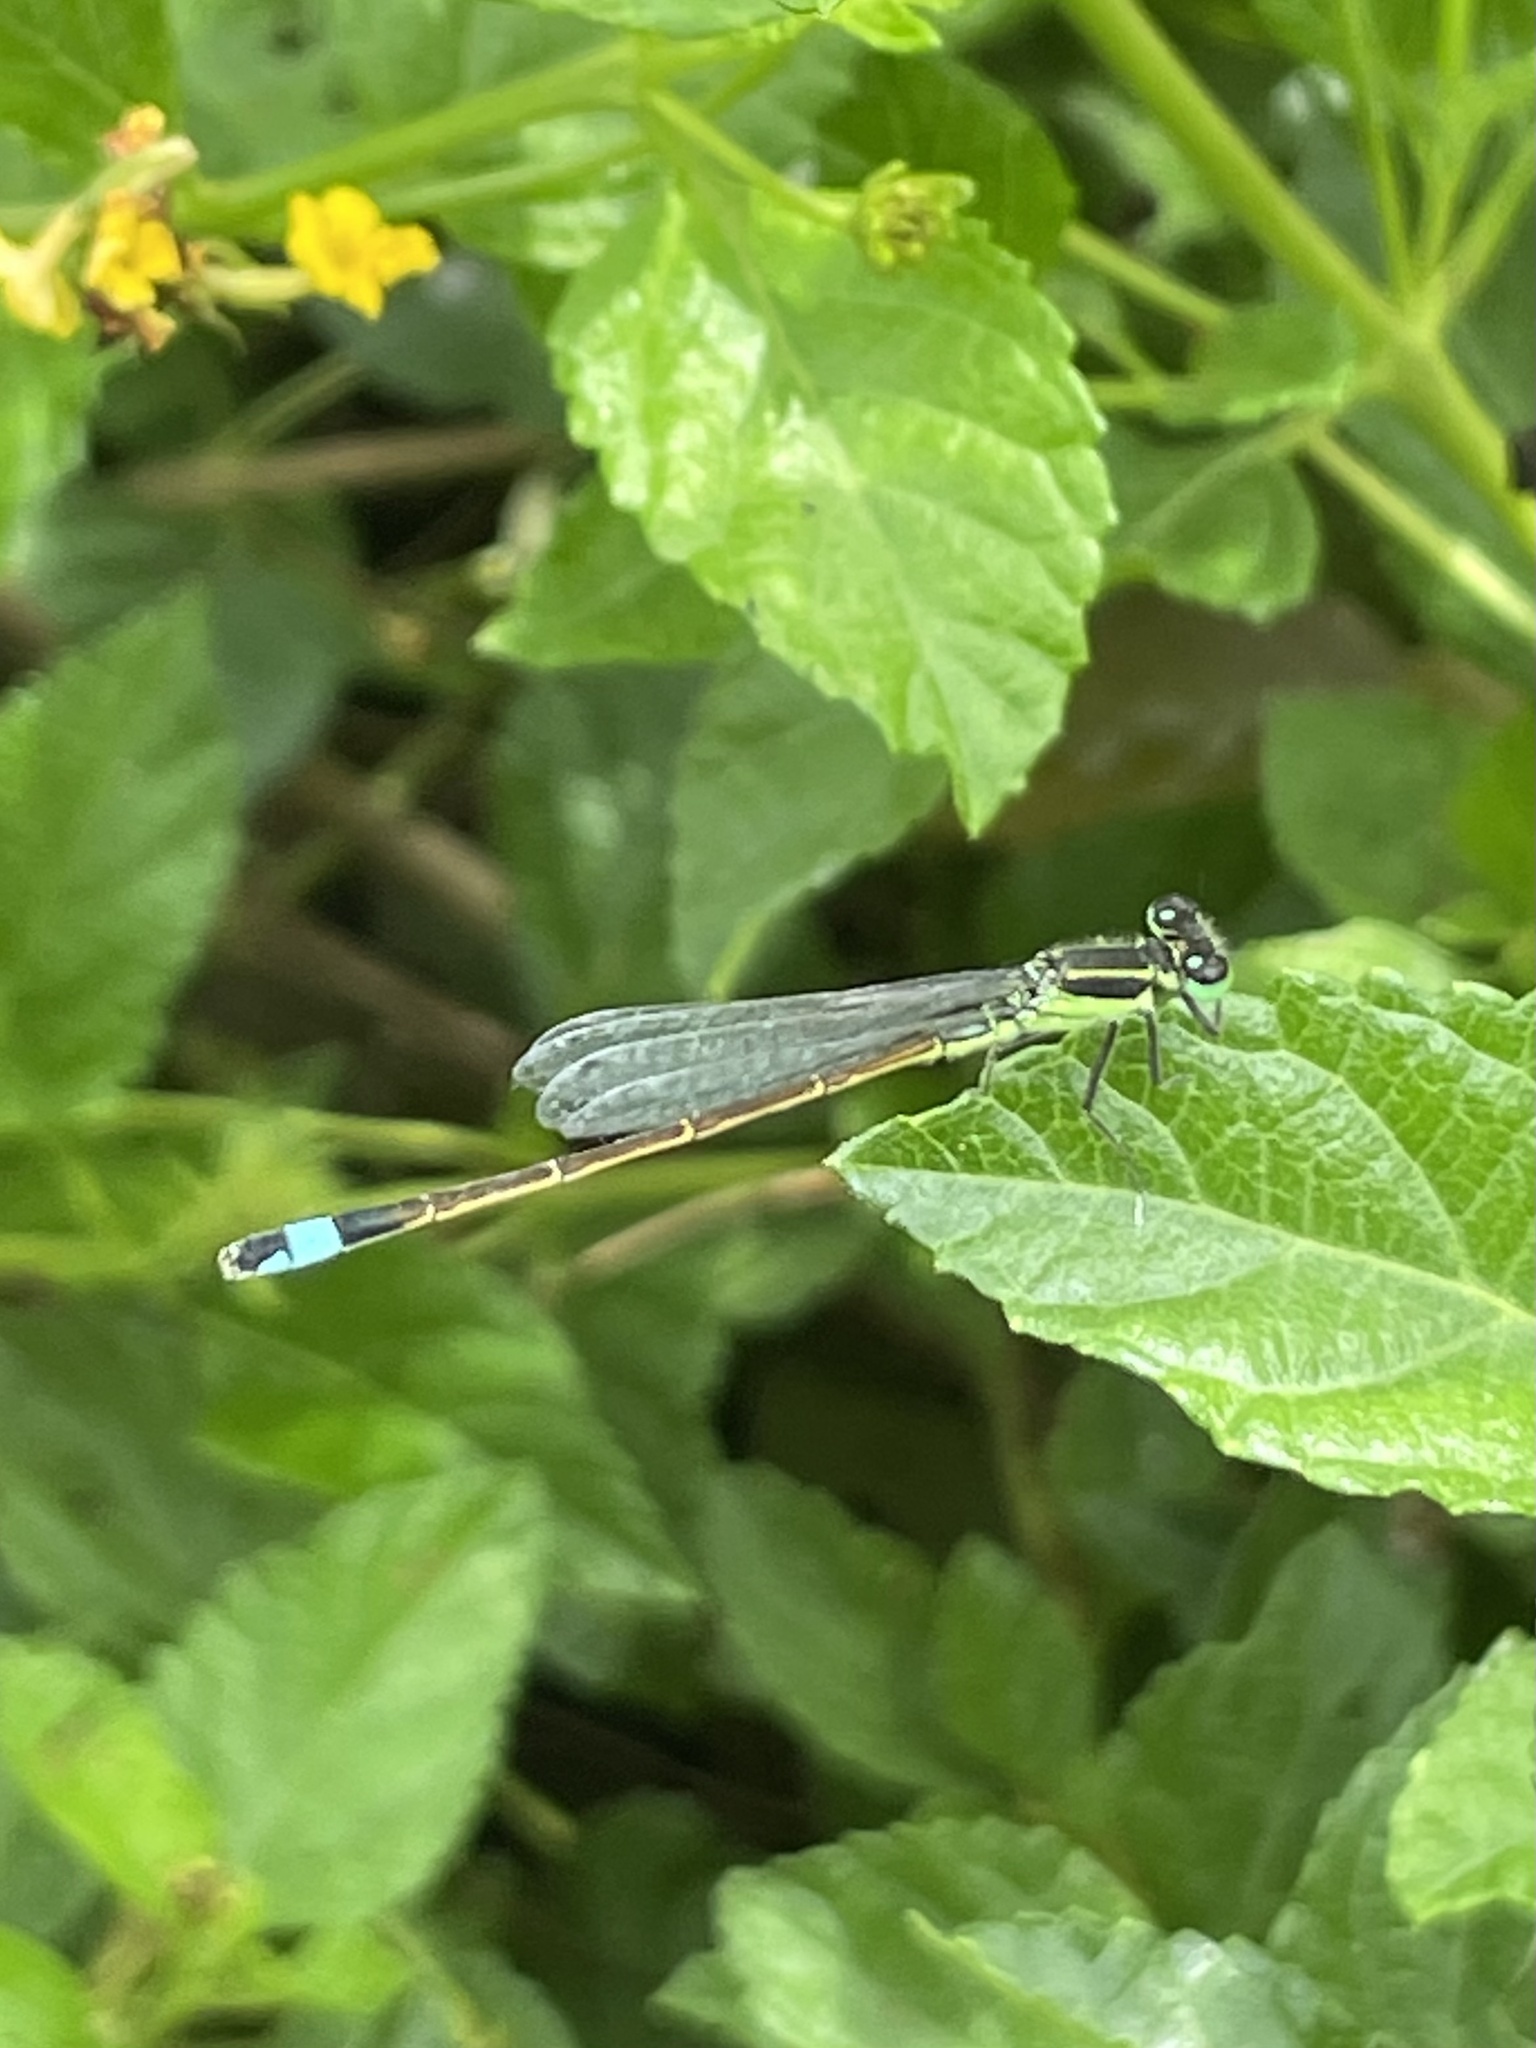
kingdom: Animalia
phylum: Arthropoda
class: Insecta
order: Odonata
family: Coenagrionidae
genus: Ischnura
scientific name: Ischnura ramburii
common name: Rambur's forktail
